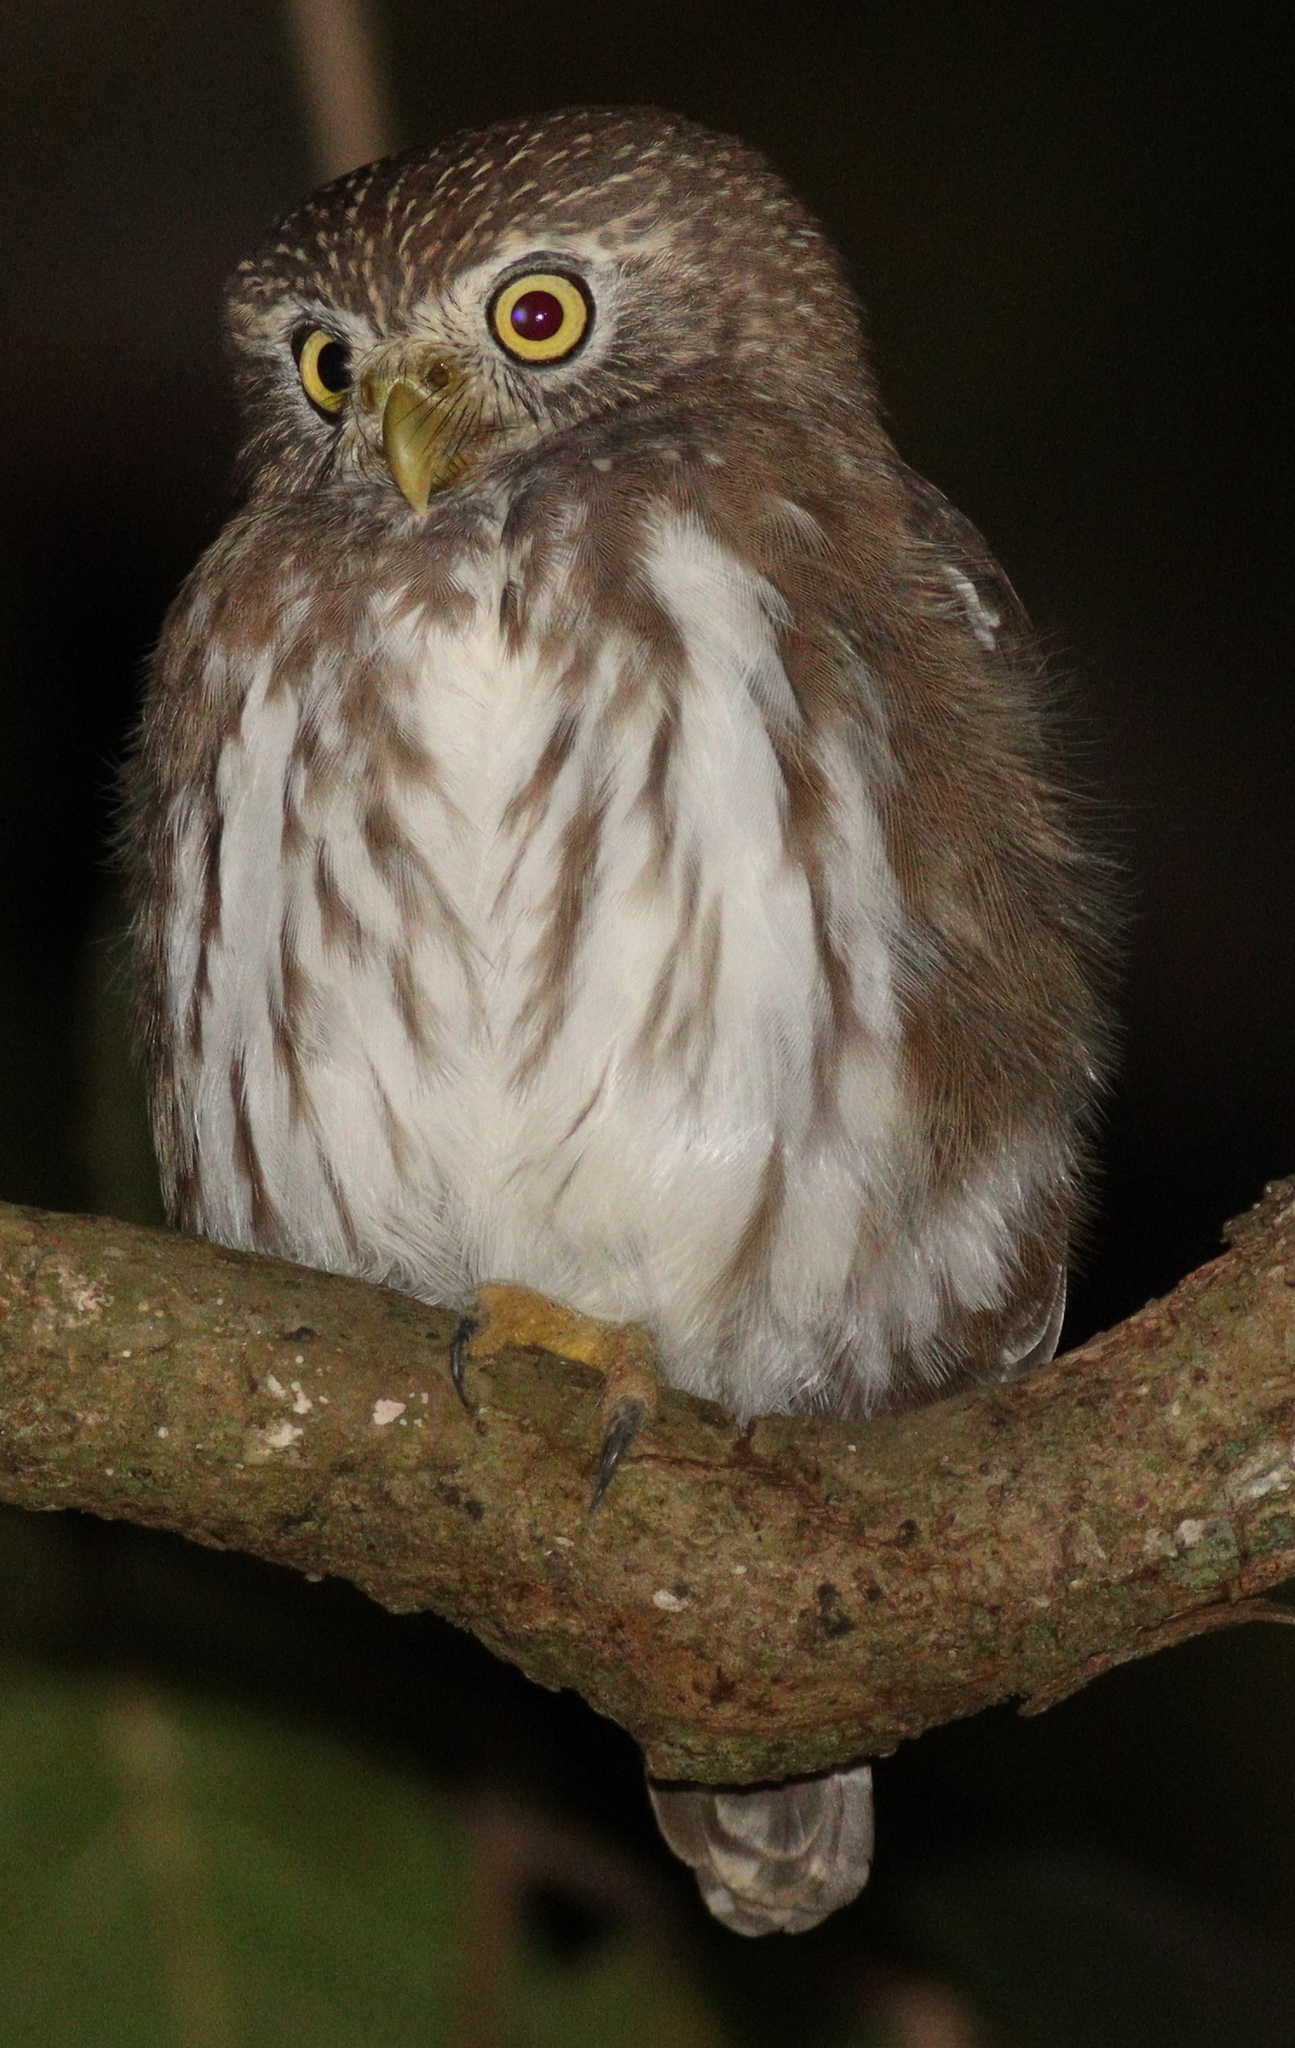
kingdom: Animalia
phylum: Chordata
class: Aves
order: Strigiformes
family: Strigidae
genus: Glaucidium
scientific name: Glaucidium brasilianum
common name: Ferruginous pygmy-owl
